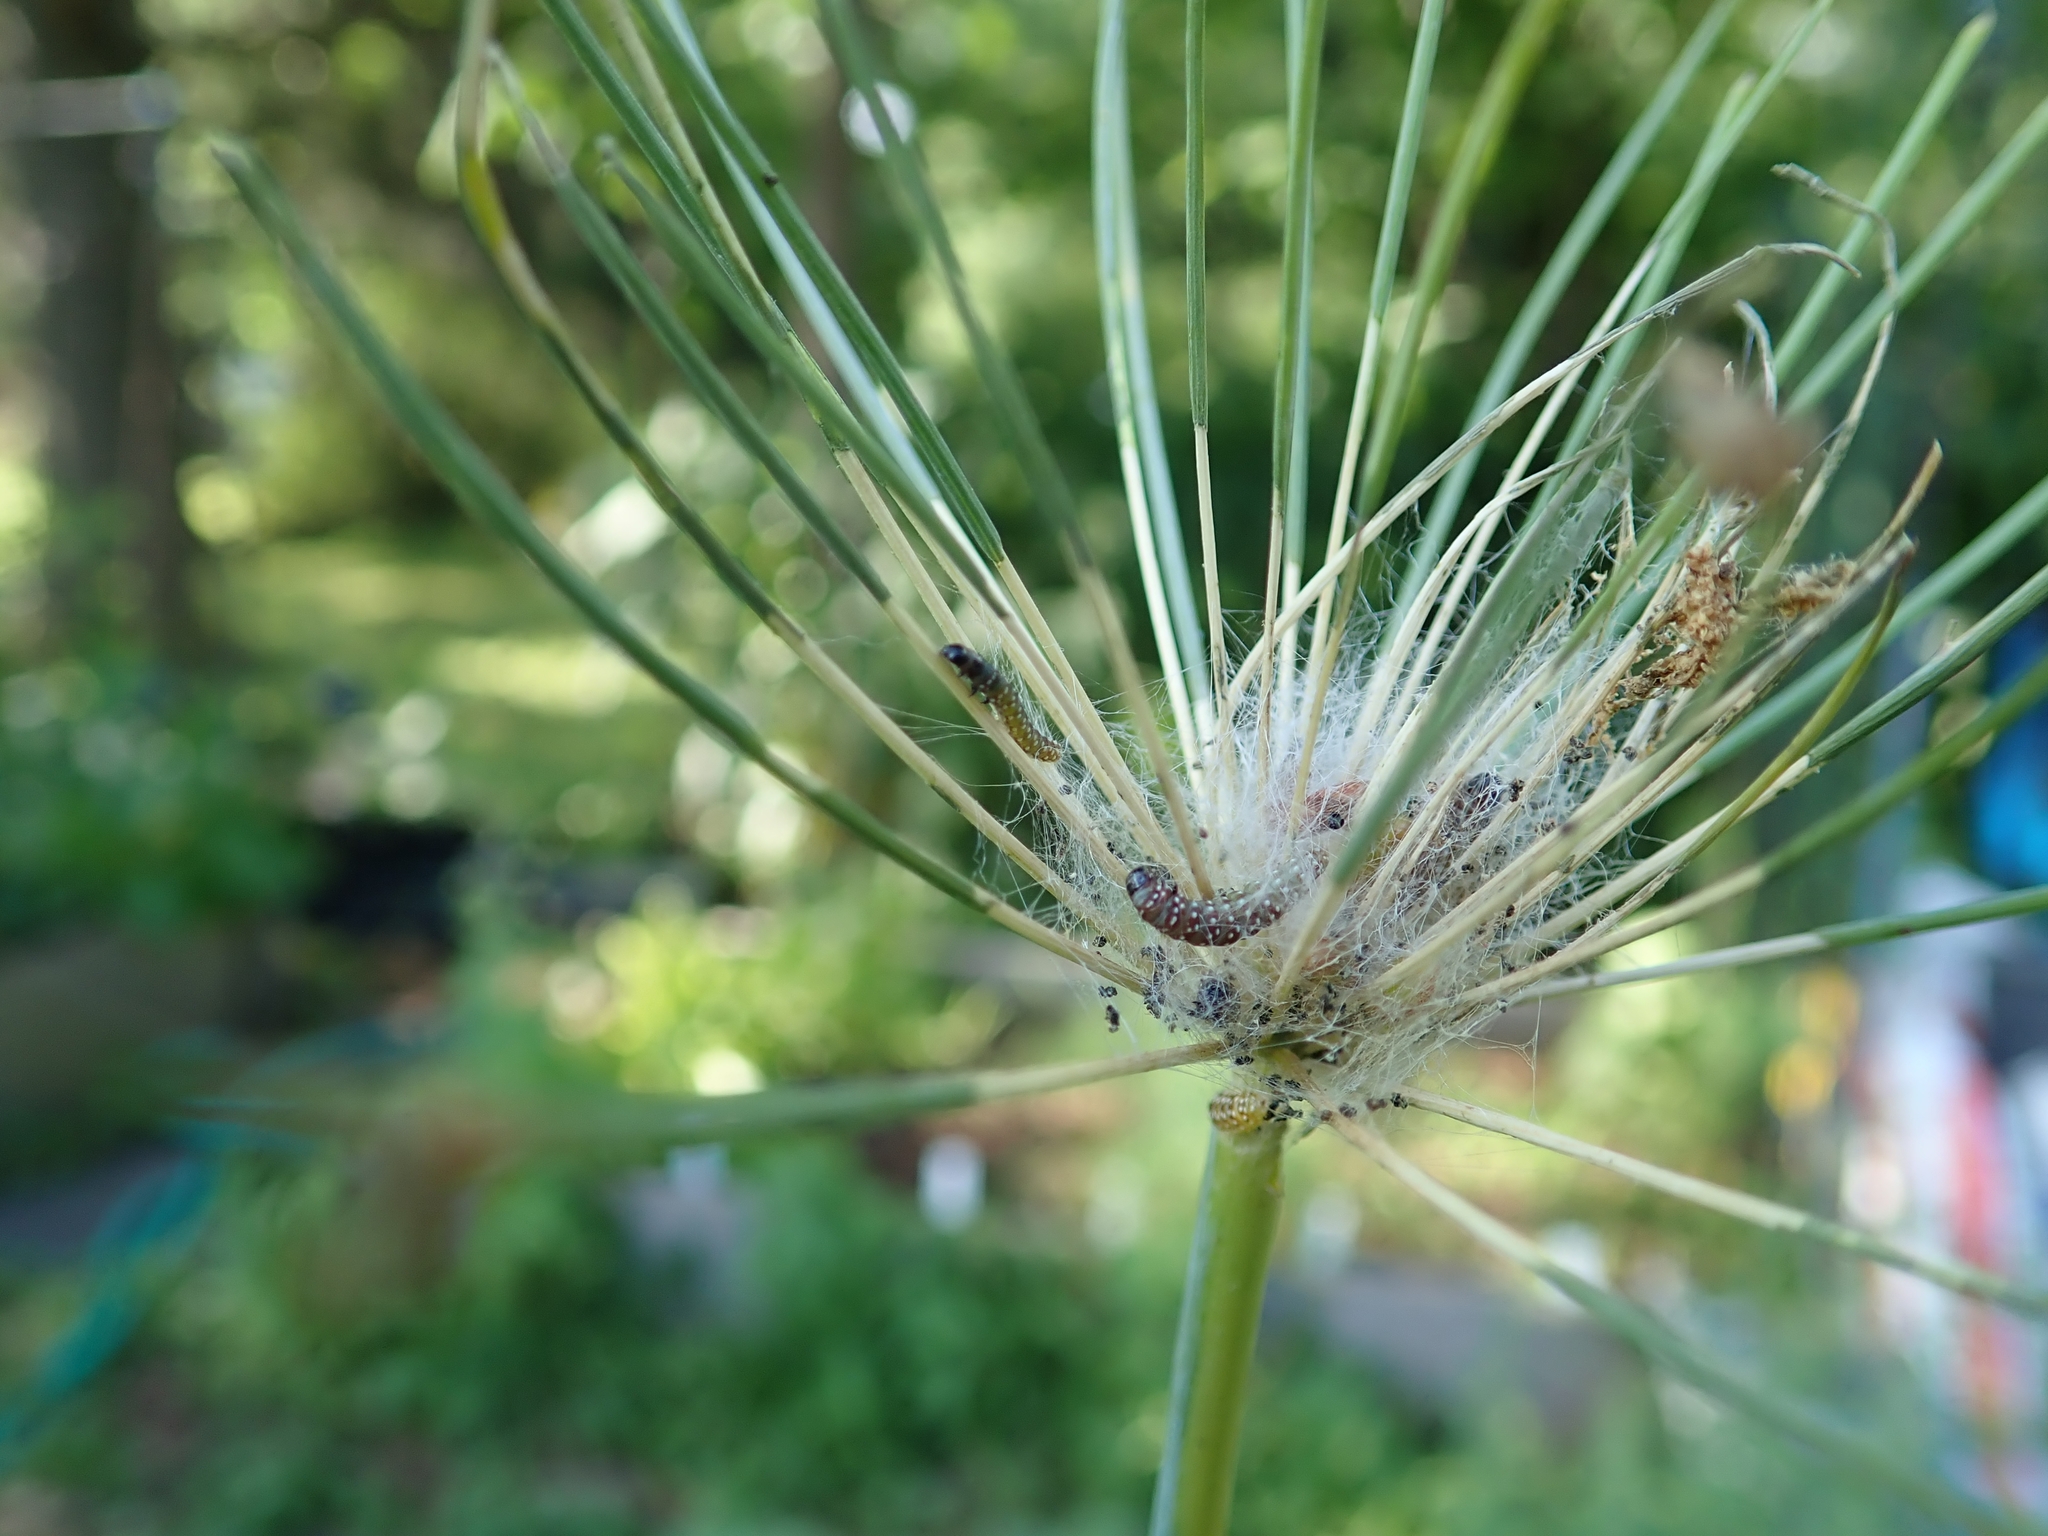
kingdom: Animalia
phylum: Arthropoda
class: Insecta
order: Lepidoptera
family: Depressariidae
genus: Depressaria
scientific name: Depressaria depressana
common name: Lost flat-body
